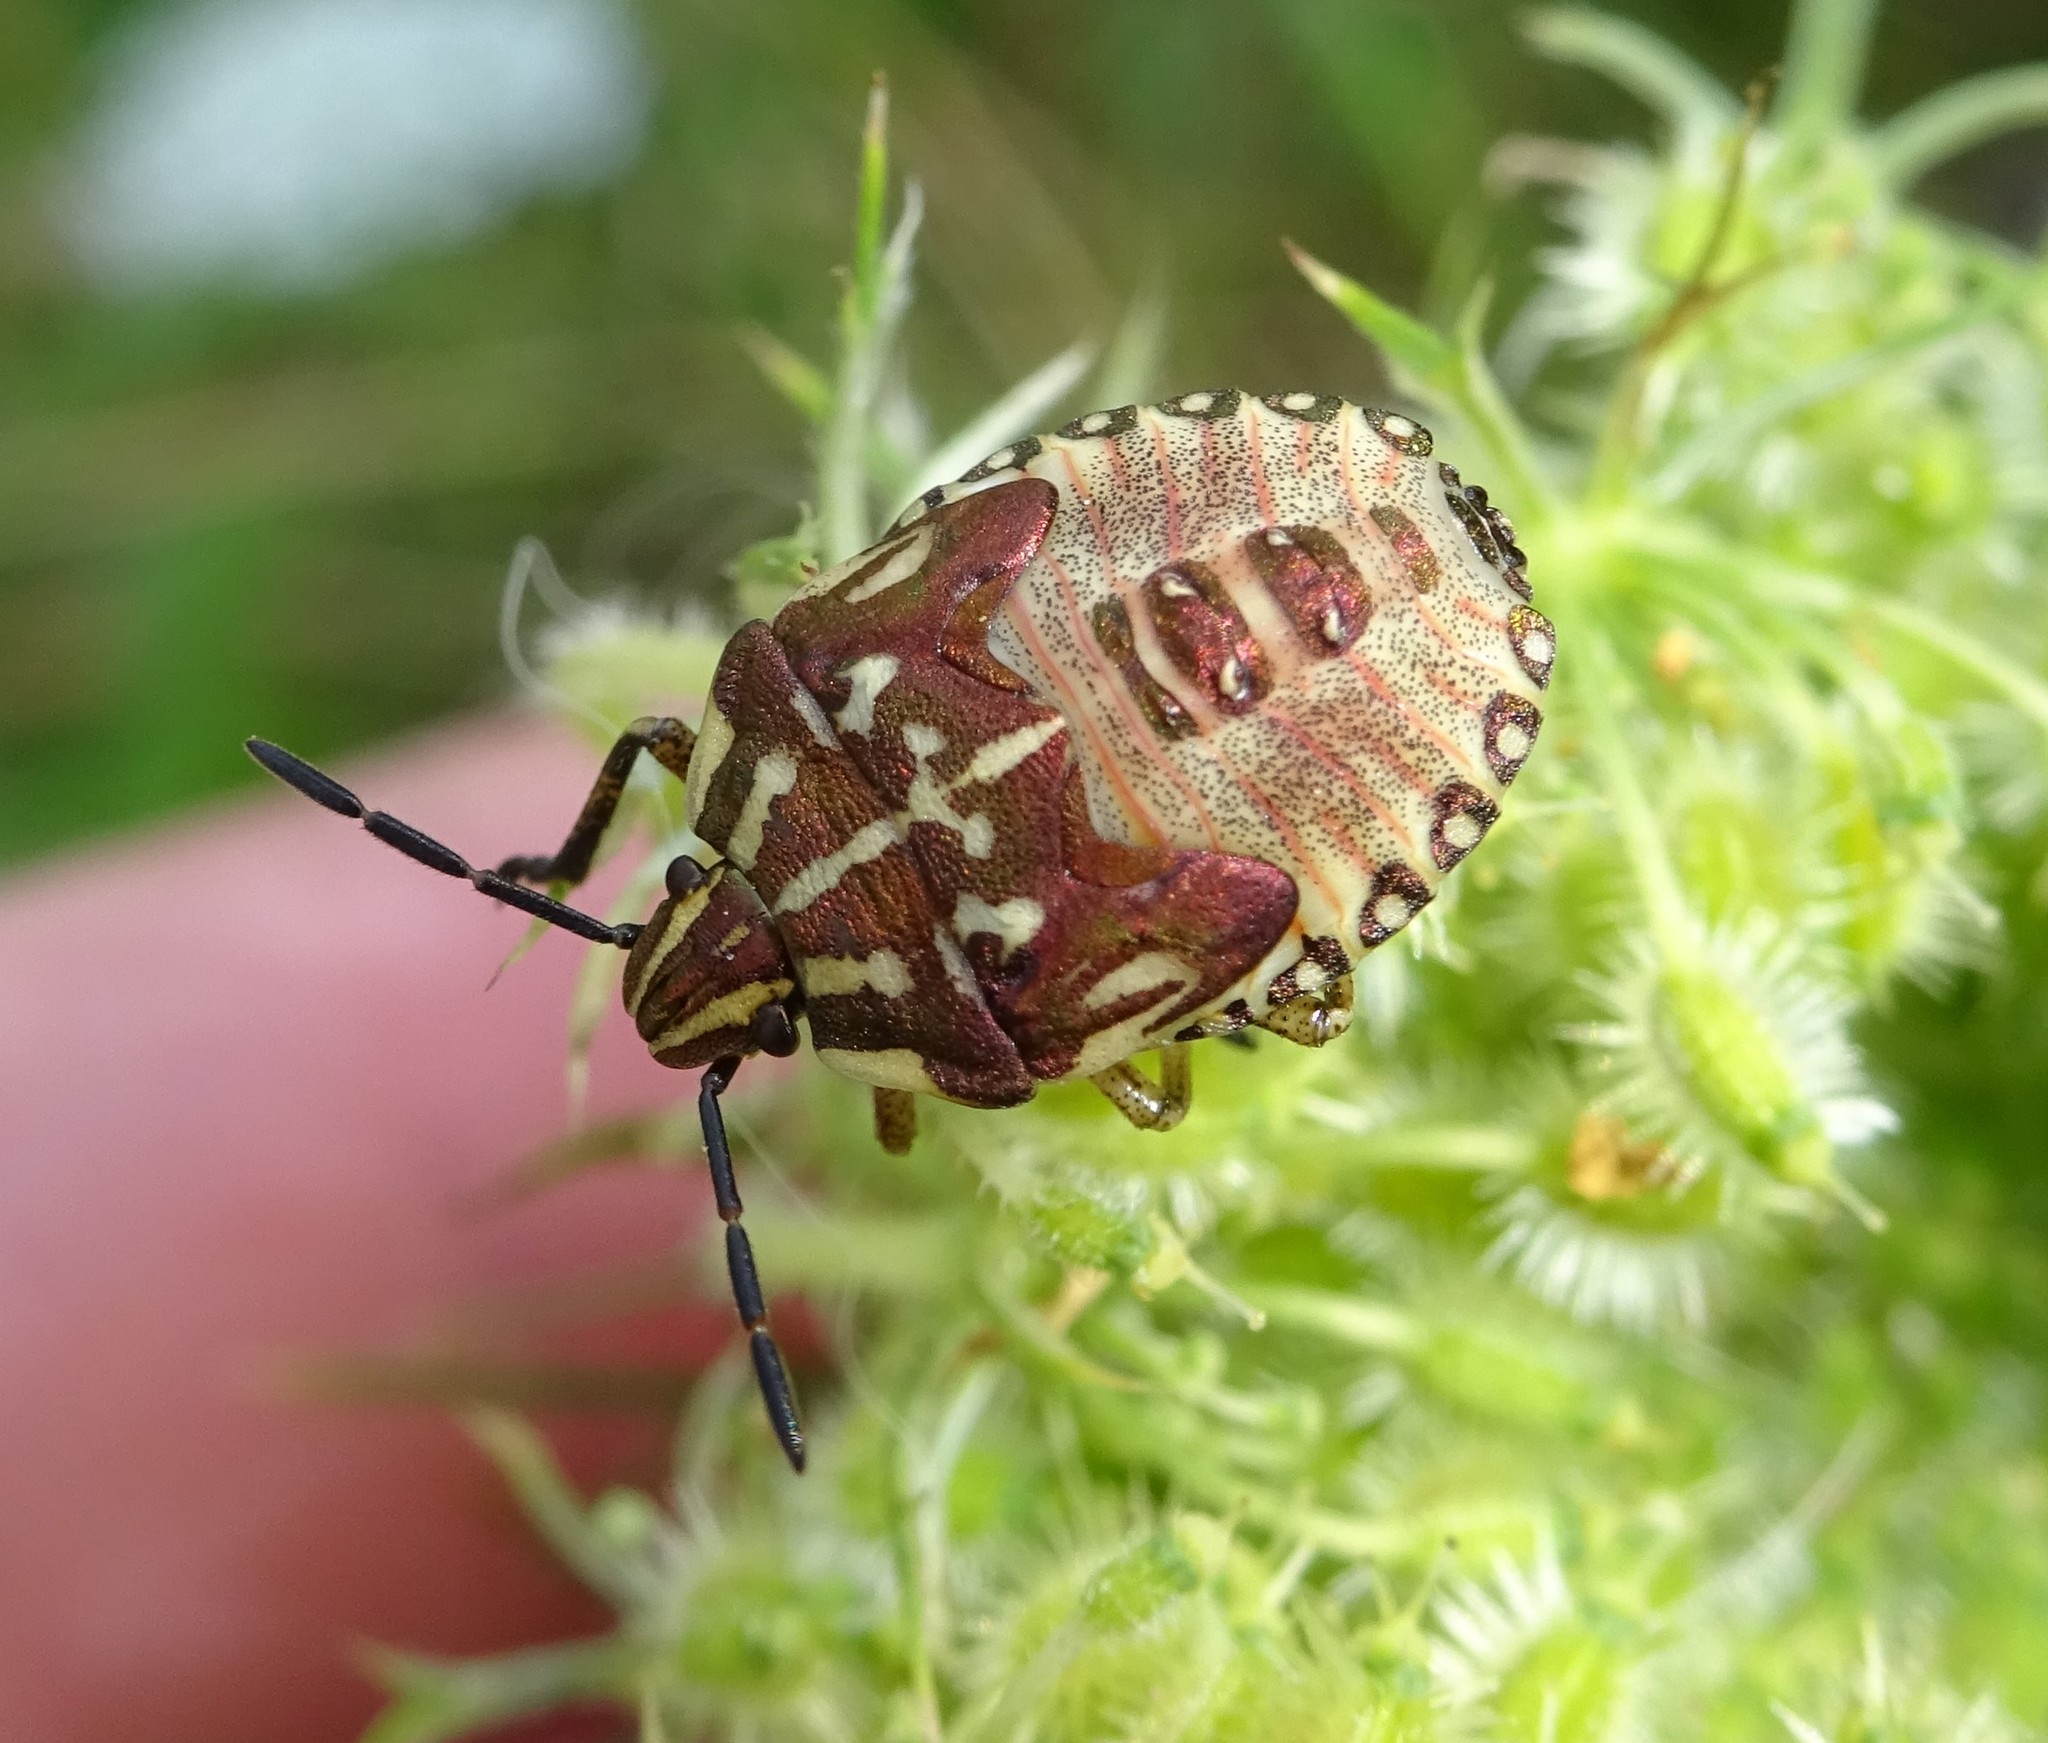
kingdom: Animalia
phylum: Arthropoda
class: Insecta
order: Hemiptera
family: Pentatomidae
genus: Carpocoris
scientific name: Carpocoris purpureipennis
